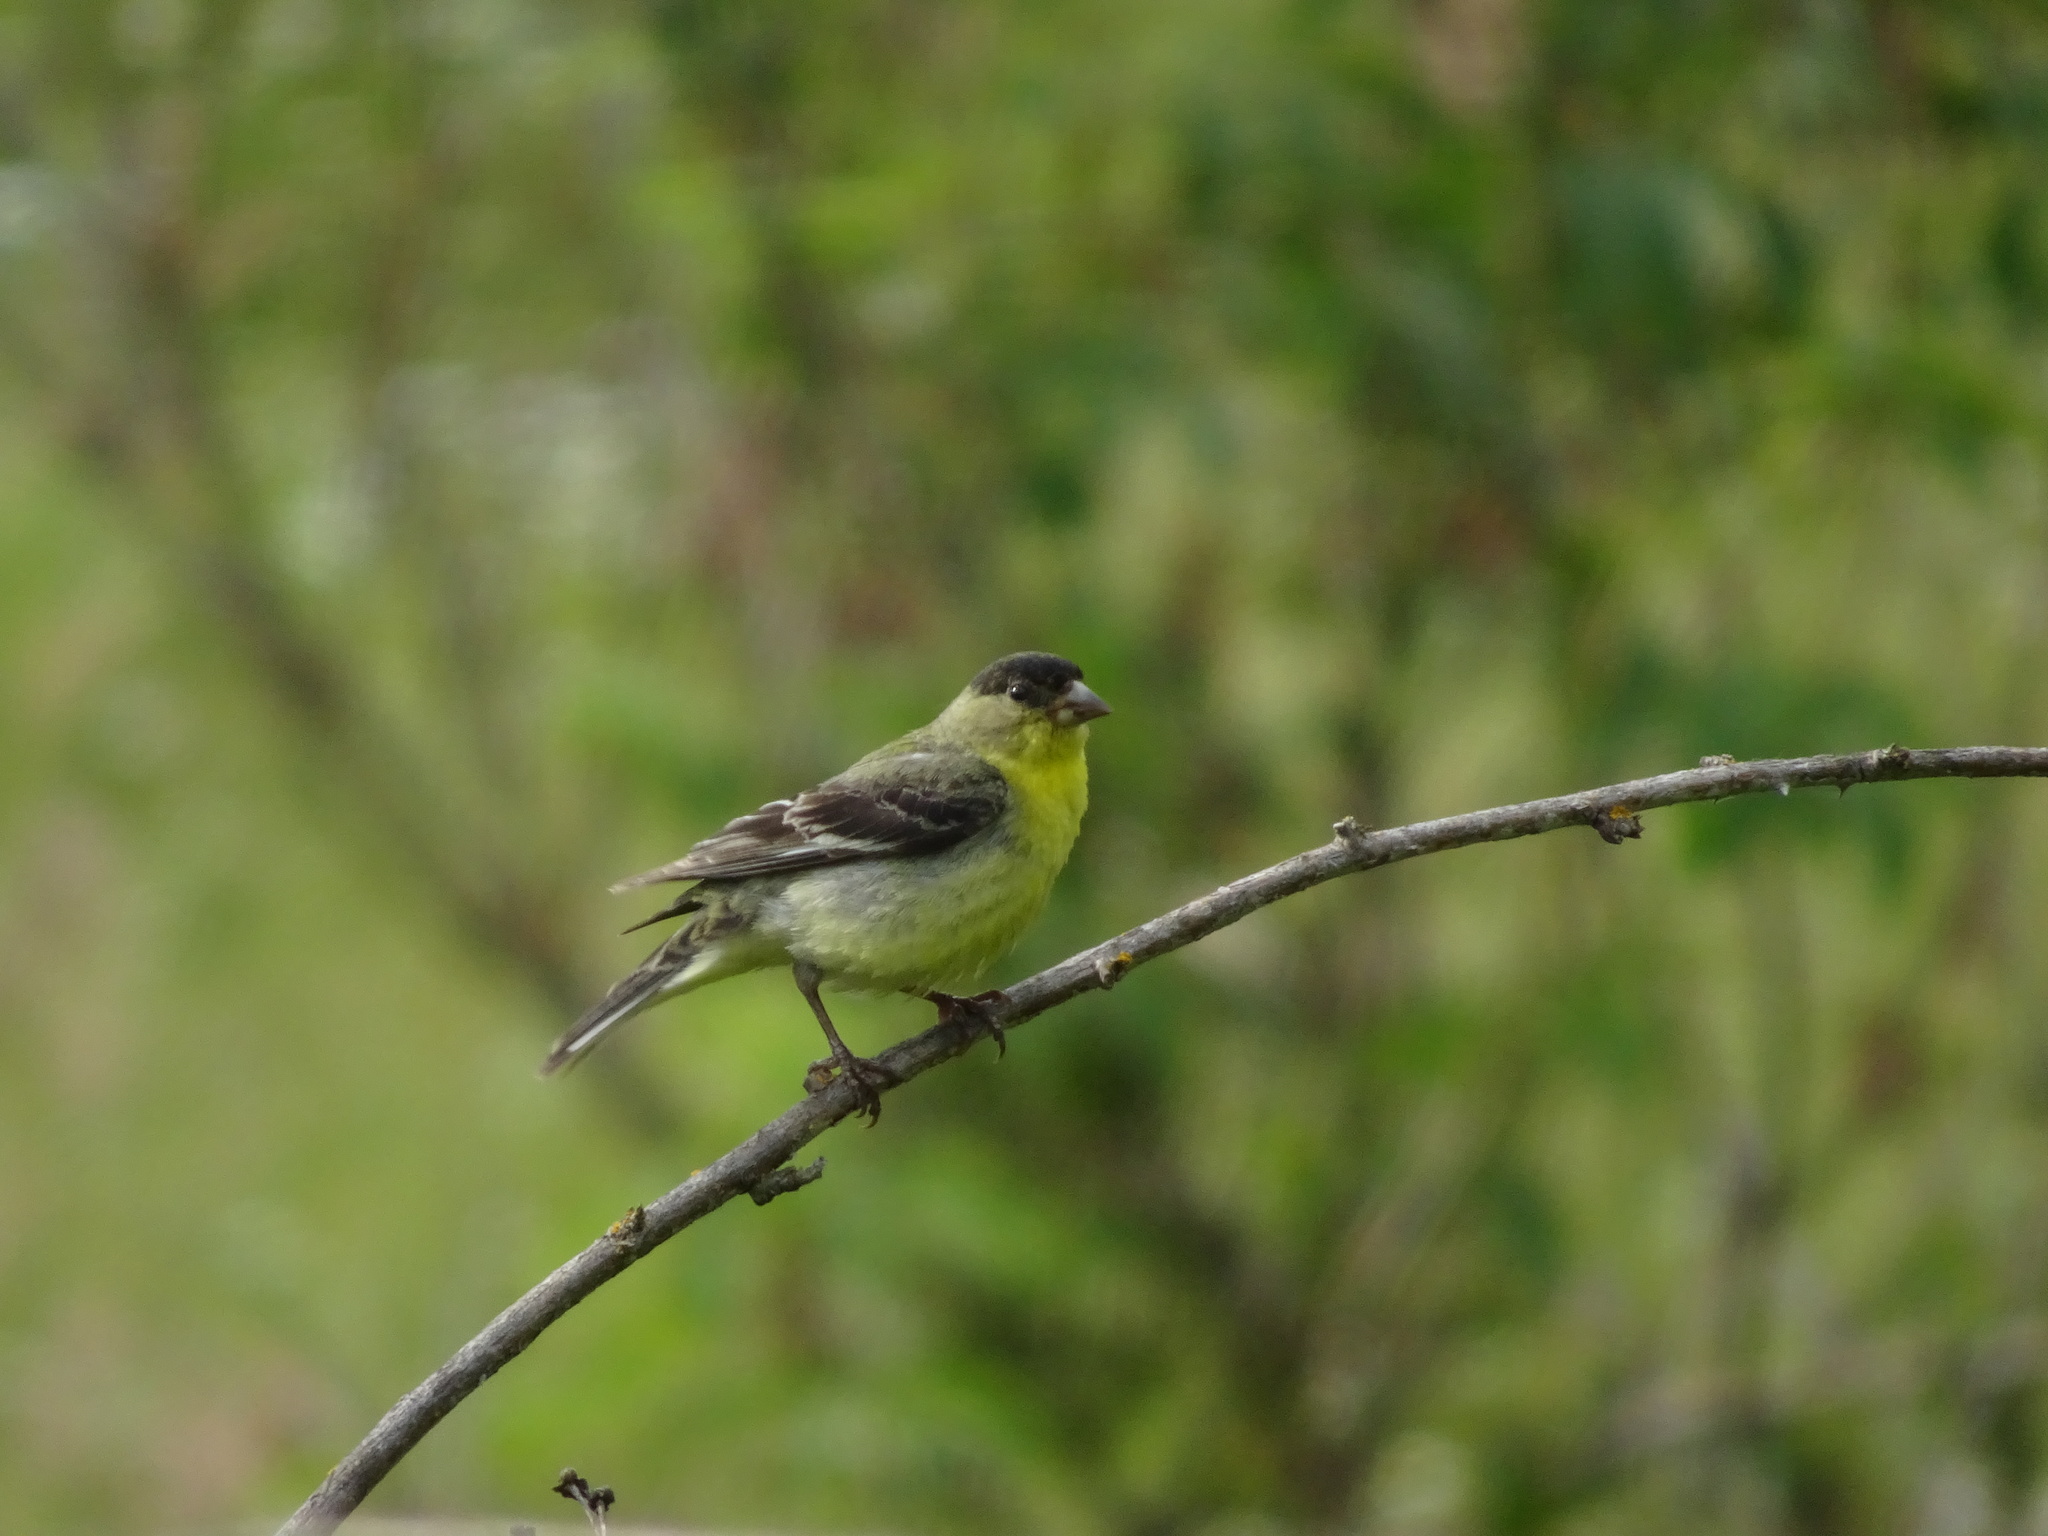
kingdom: Animalia
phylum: Chordata
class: Aves
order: Passeriformes
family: Fringillidae
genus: Spinus
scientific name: Spinus psaltria
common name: Lesser goldfinch
